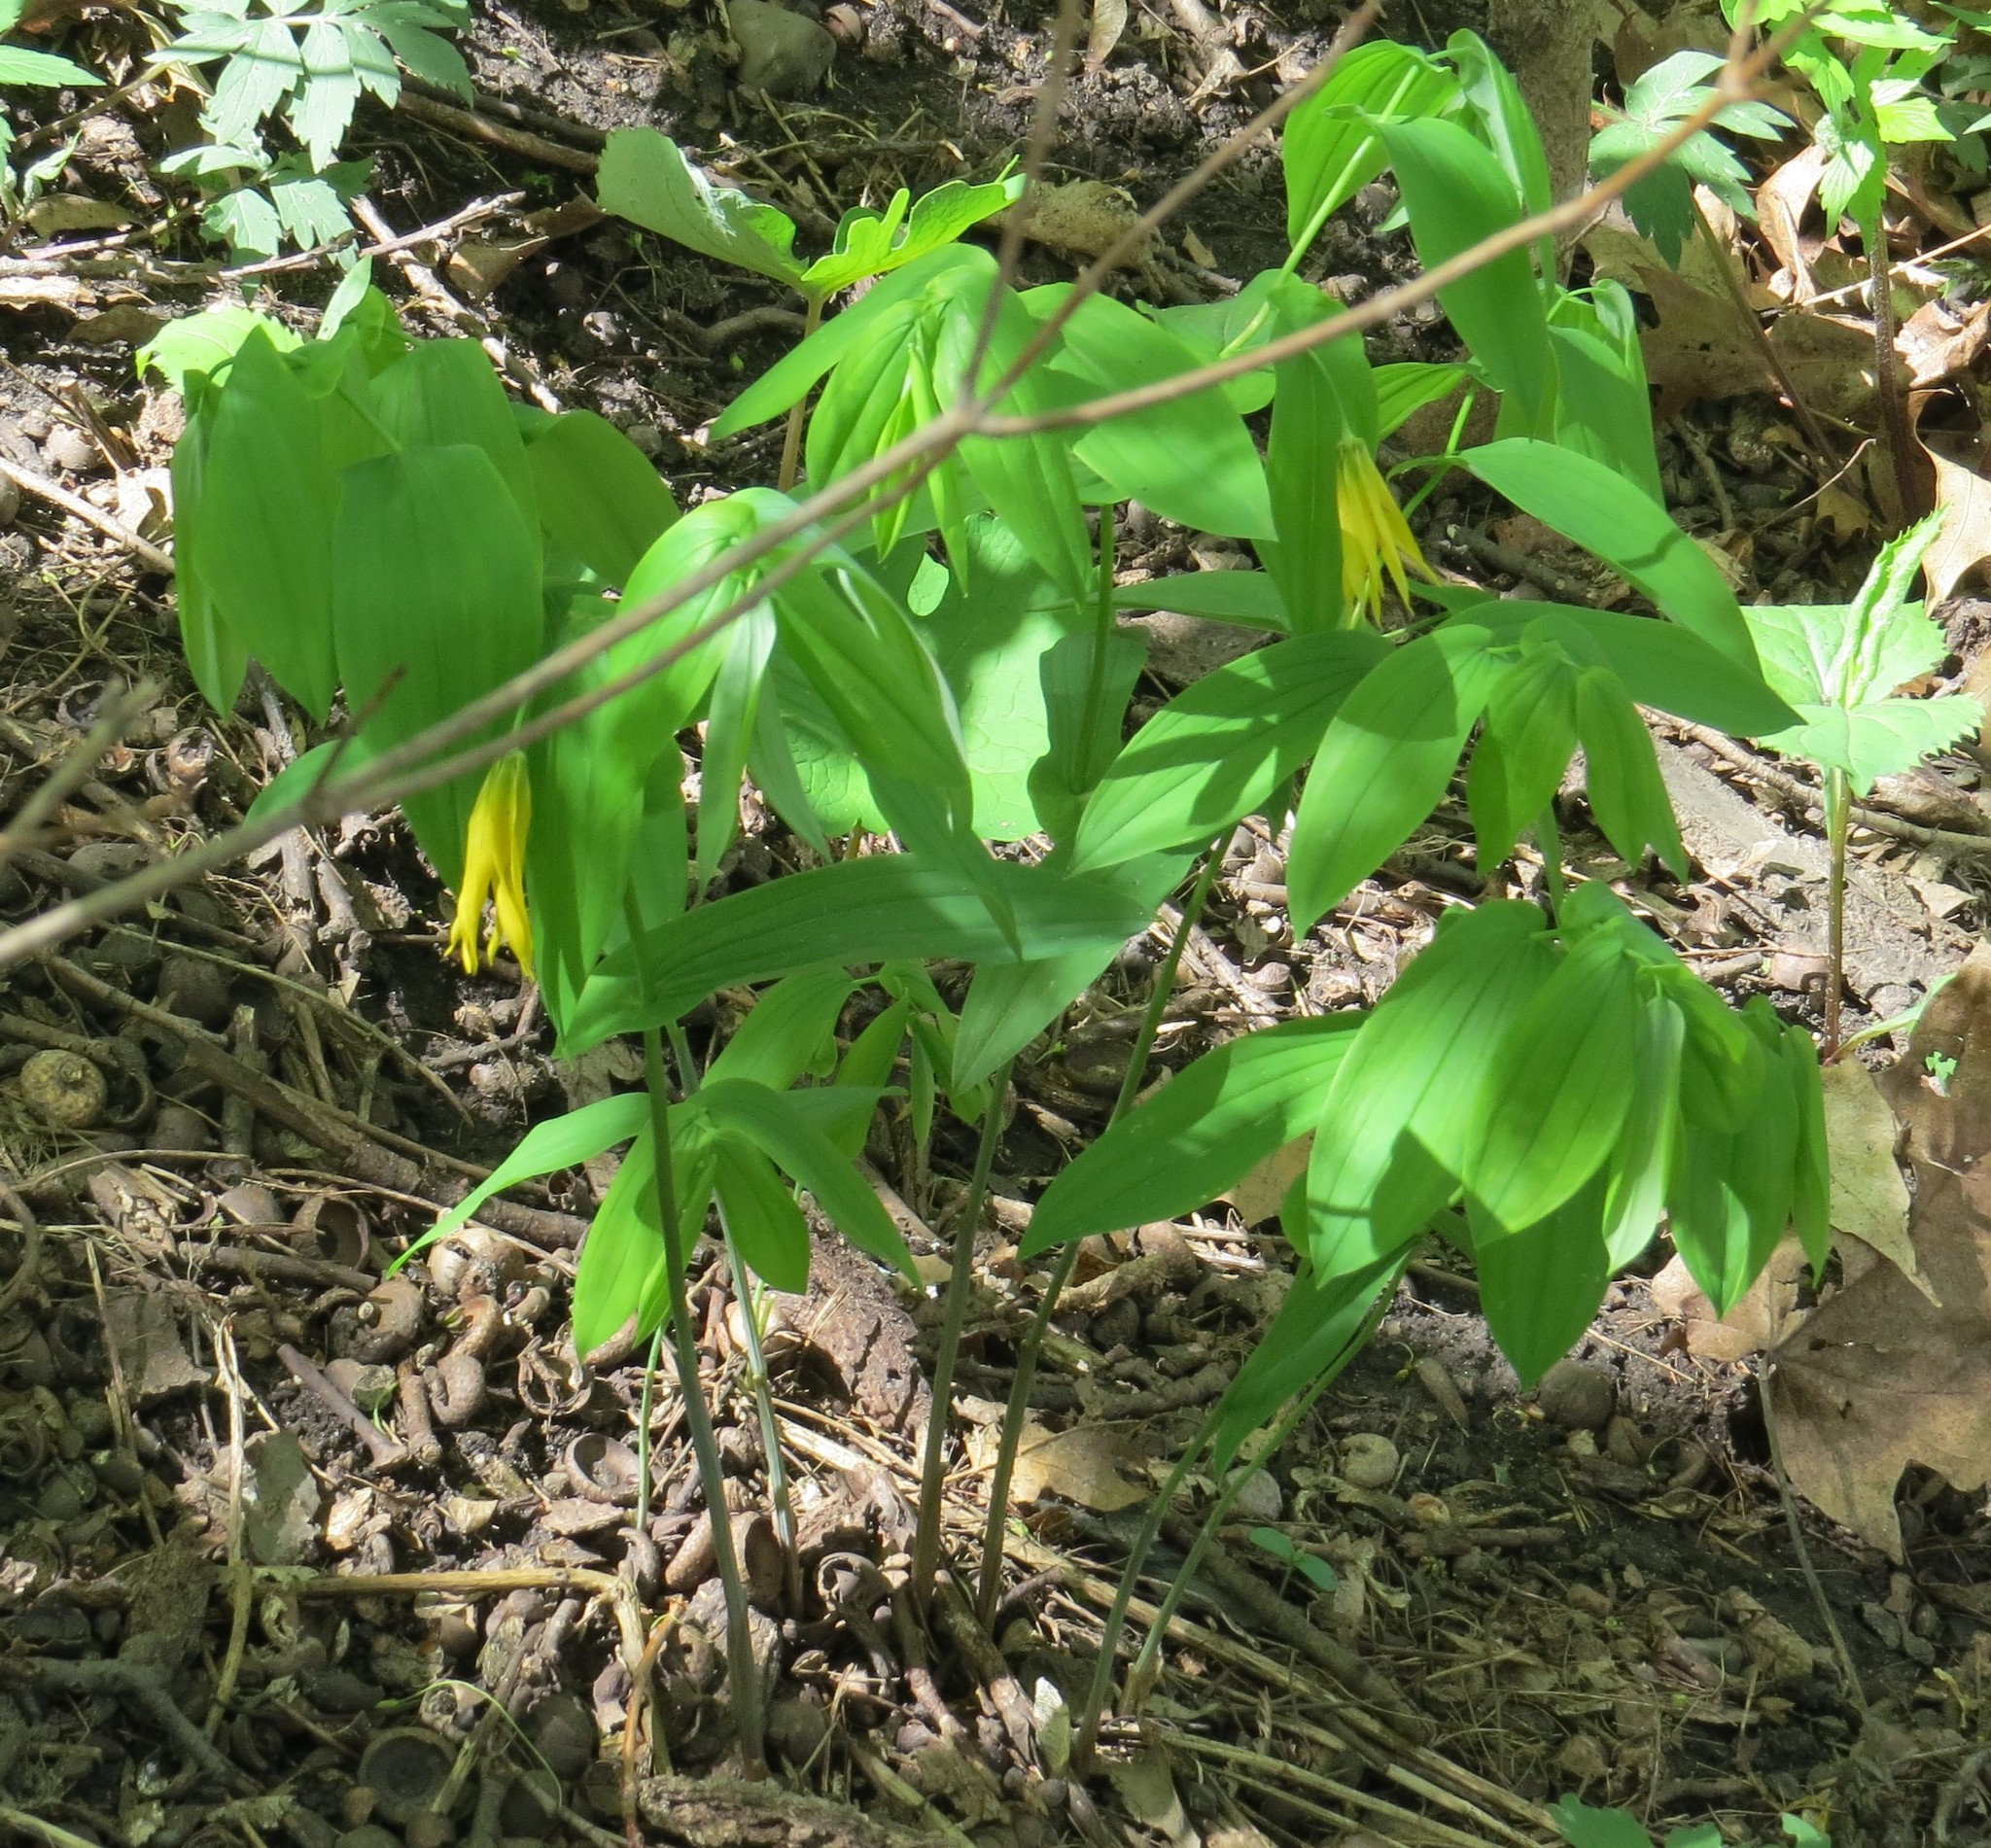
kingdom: Plantae
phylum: Tracheophyta
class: Liliopsida
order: Liliales
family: Colchicaceae
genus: Uvularia
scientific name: Uvularia grandiflora
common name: Bellwort
